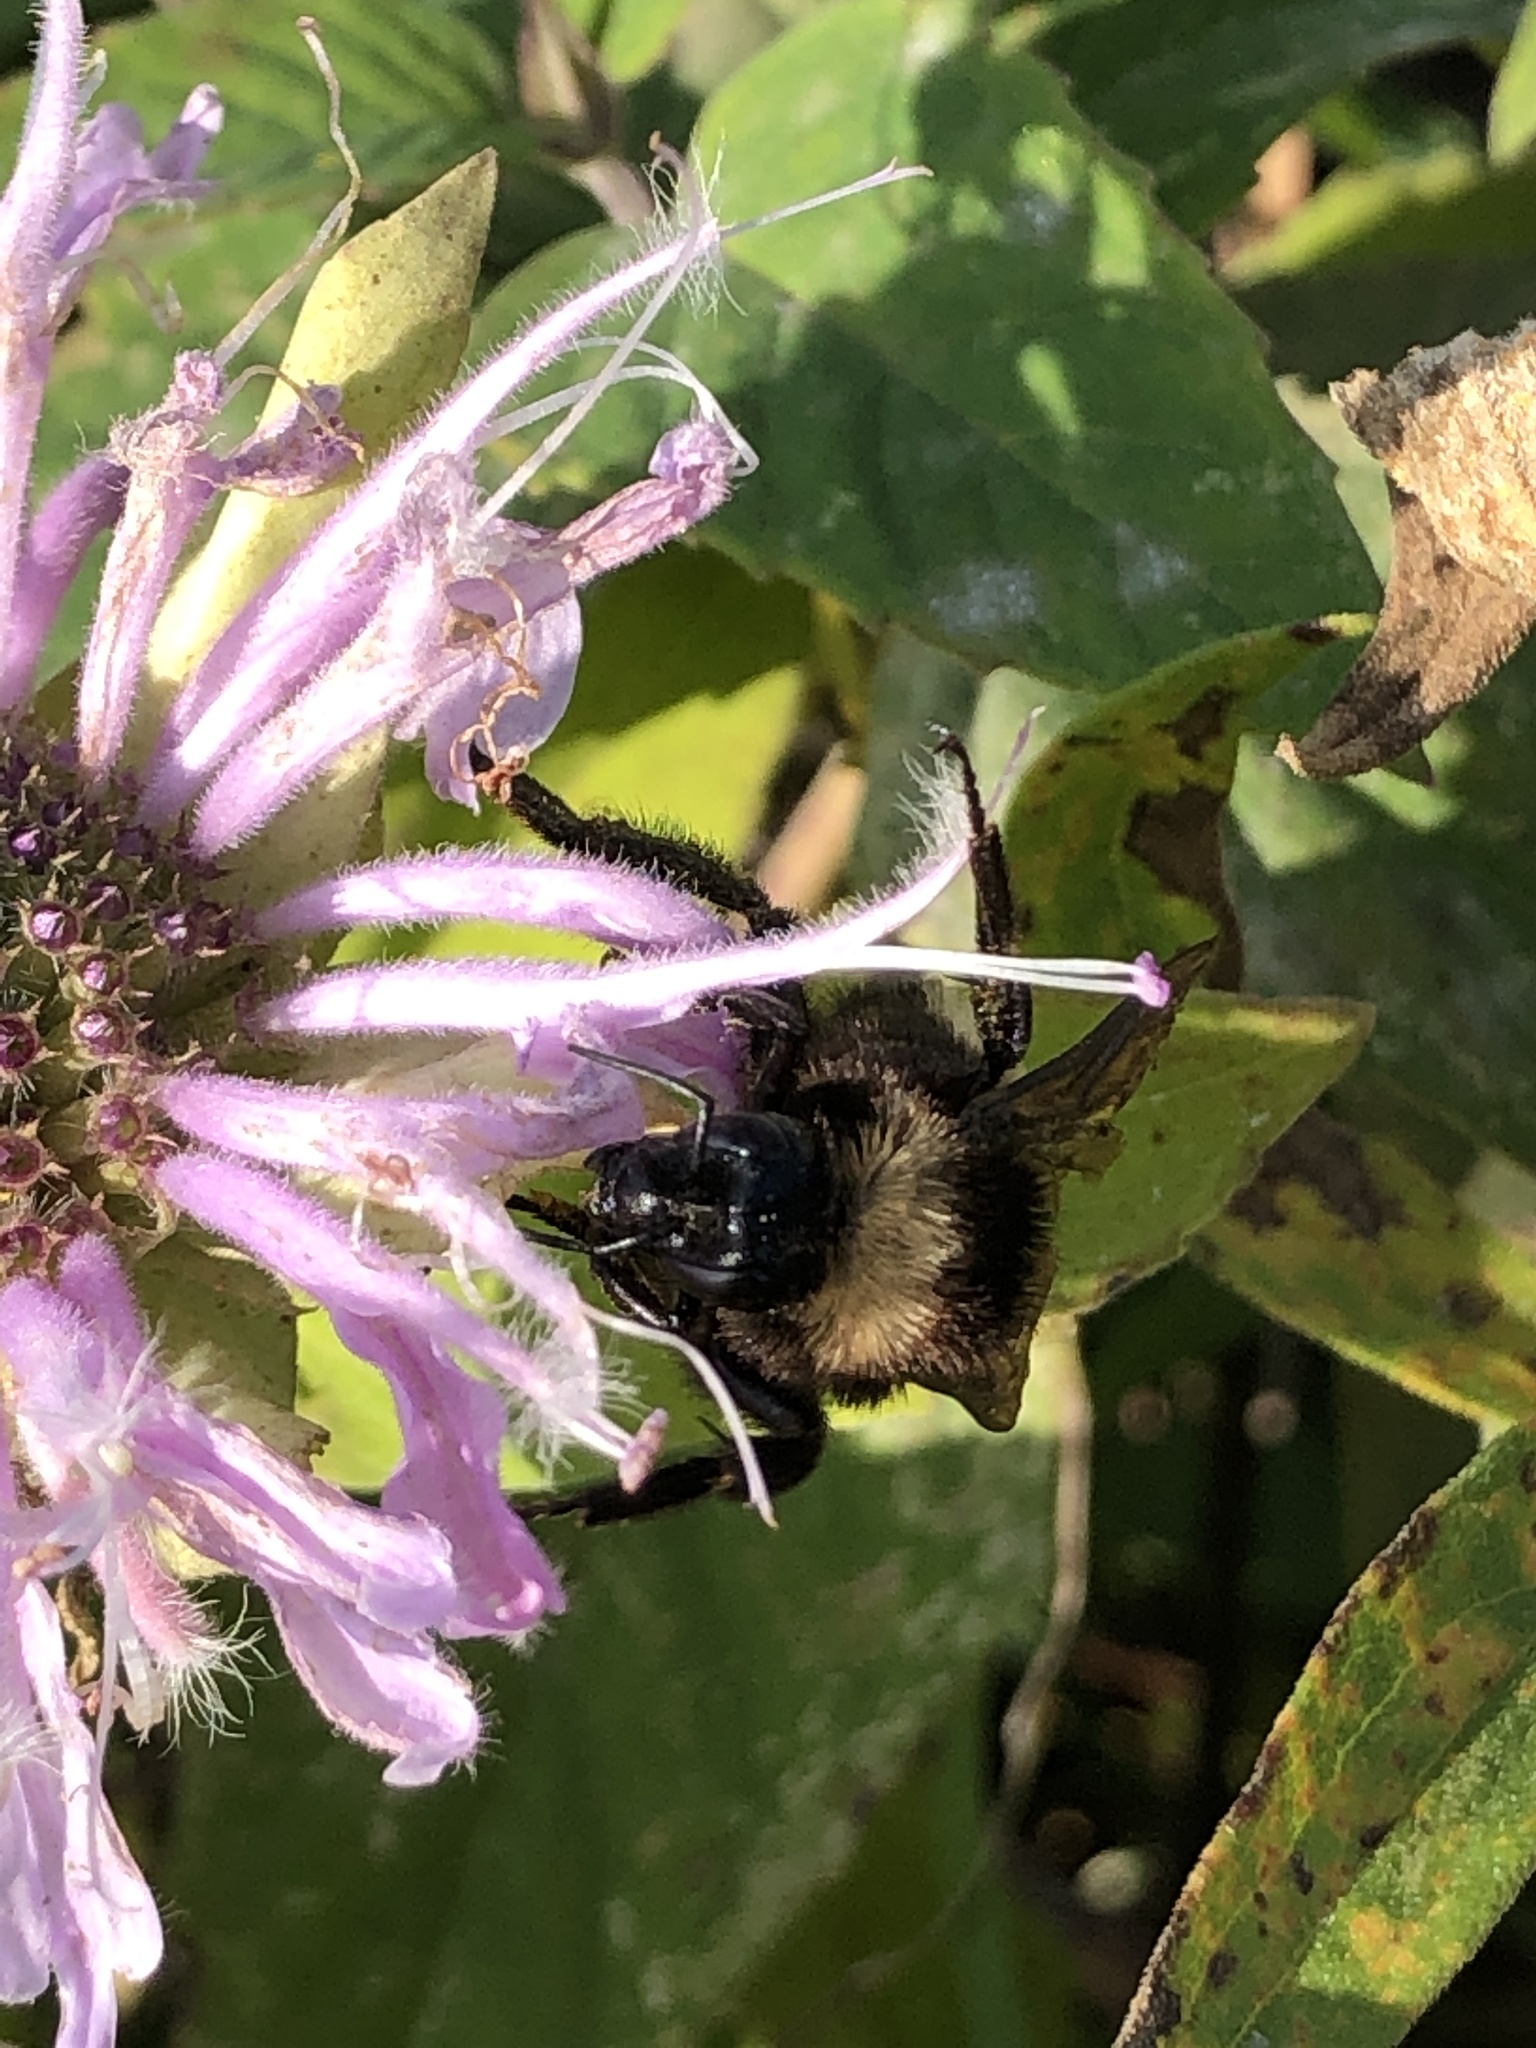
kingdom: Animalia
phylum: Arthropoda
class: Insecta
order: Hymenoptera
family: Apidae
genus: Bombus
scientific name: Bombus pensylvanicus
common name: Bumble bee
